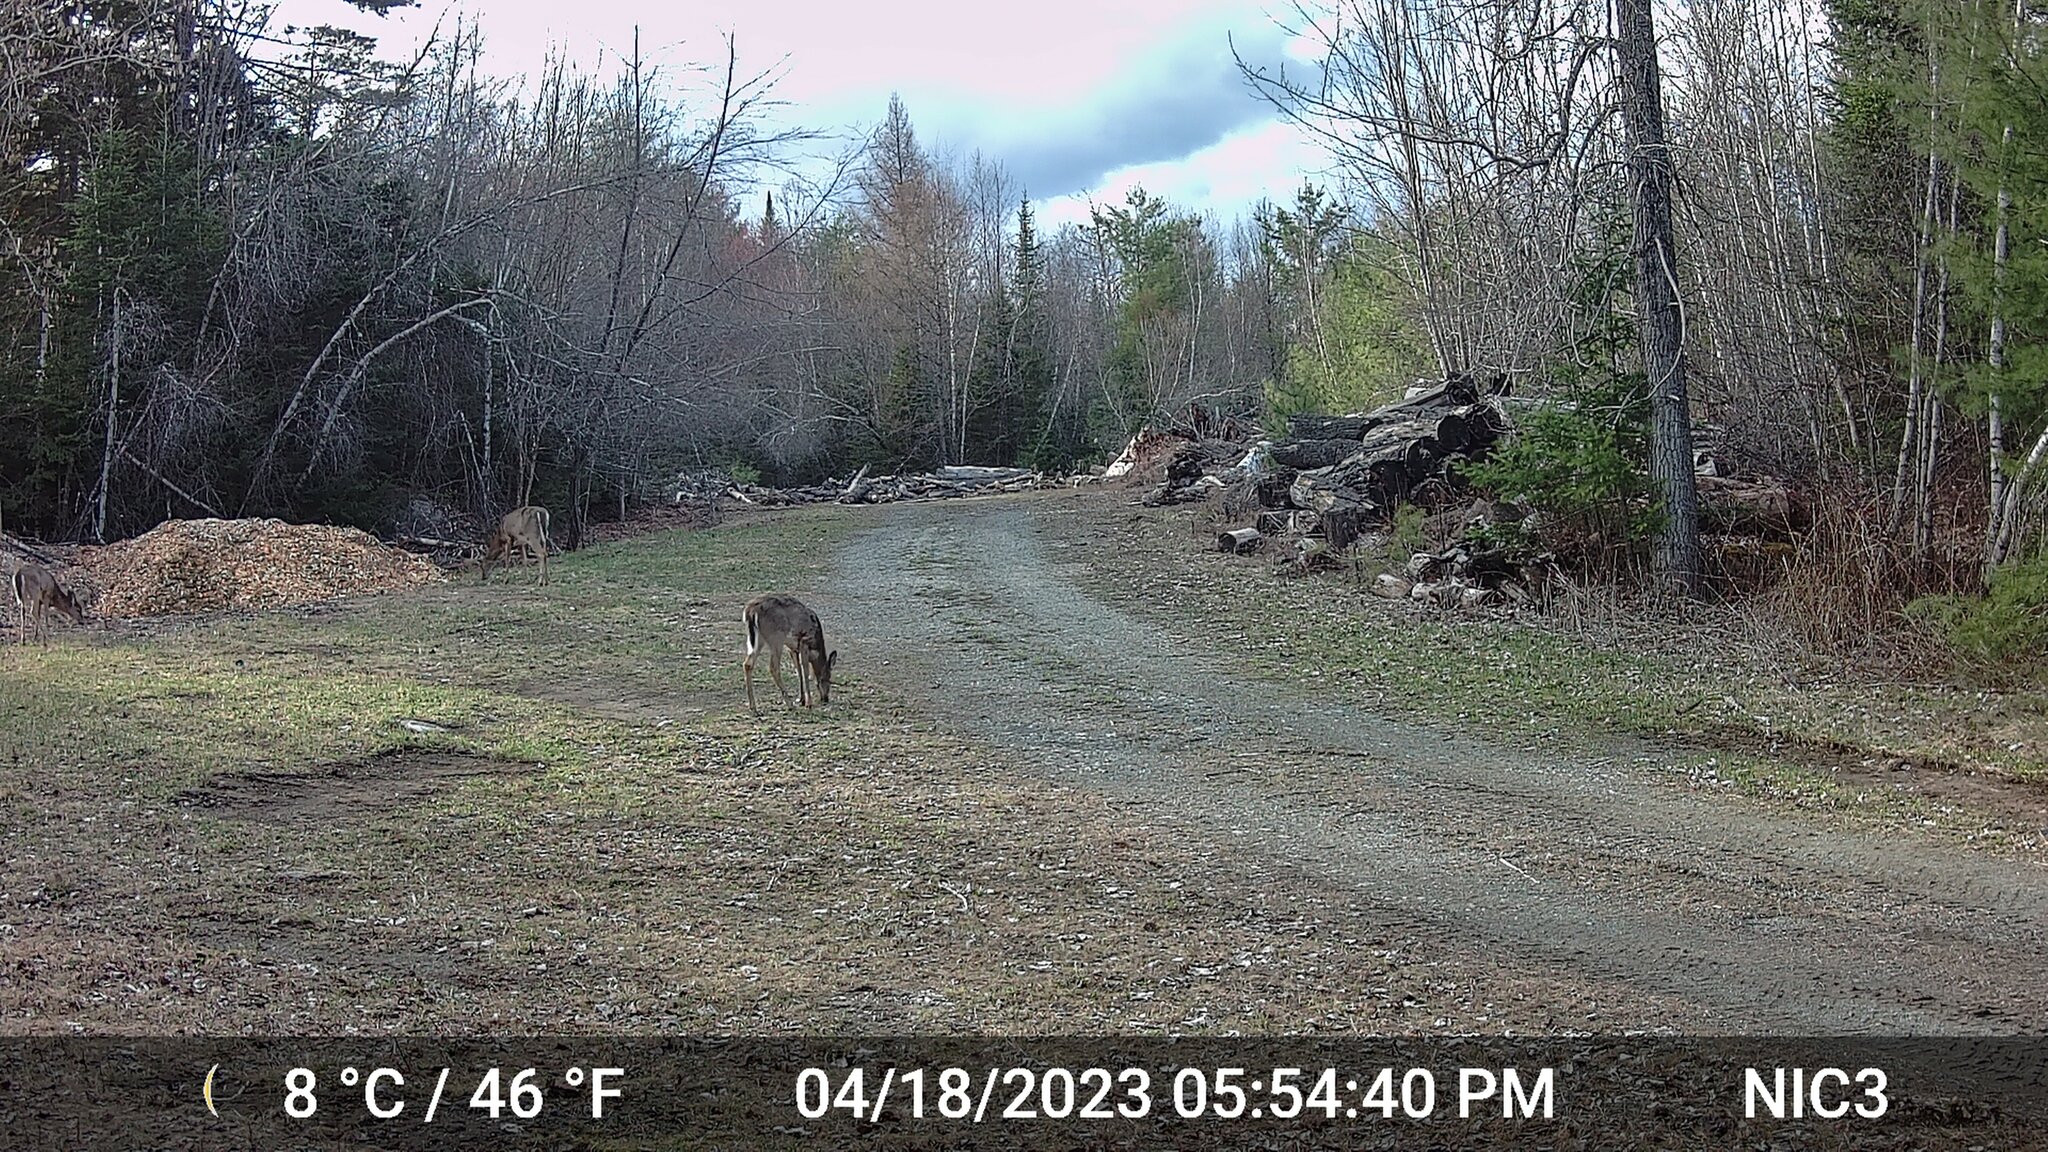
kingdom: Animalia
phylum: Chordata
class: Mammalia
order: Artiodactyla
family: Cervidae
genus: Odocoileus
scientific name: Odocoileus virginianus
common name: White-tailed deer
